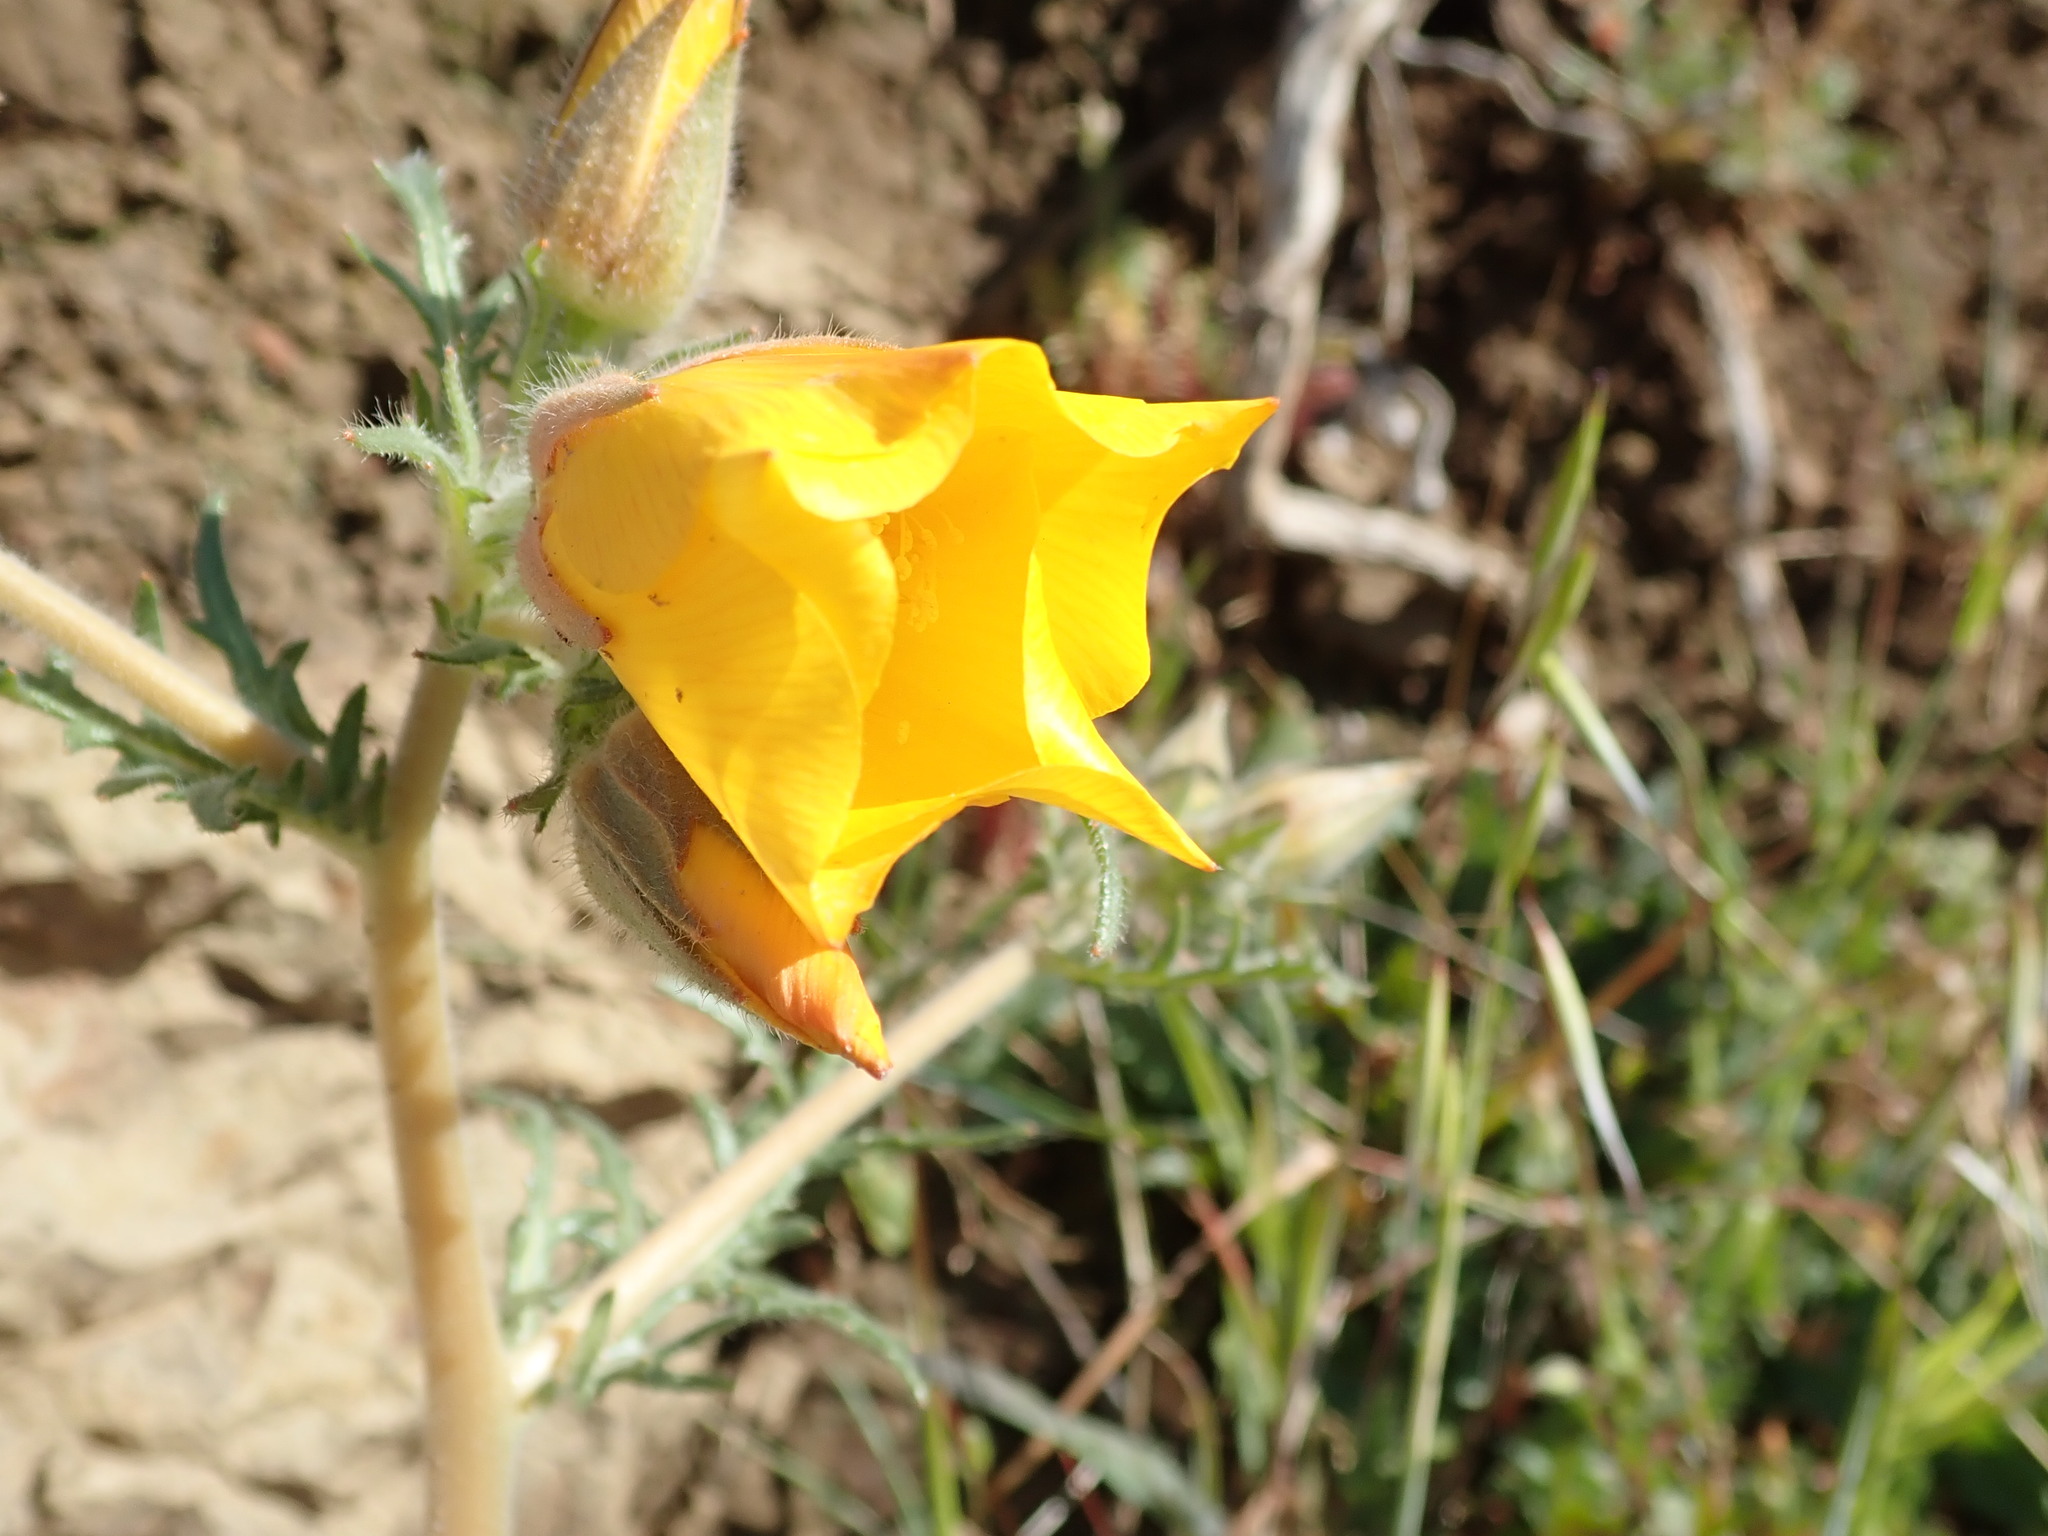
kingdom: Plantae
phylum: Tracheophyta
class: Magnoliopsida
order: Cornales
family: Loasaceae
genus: Mentzelia
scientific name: Mentzelia lindleyi
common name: Golden bartonia
